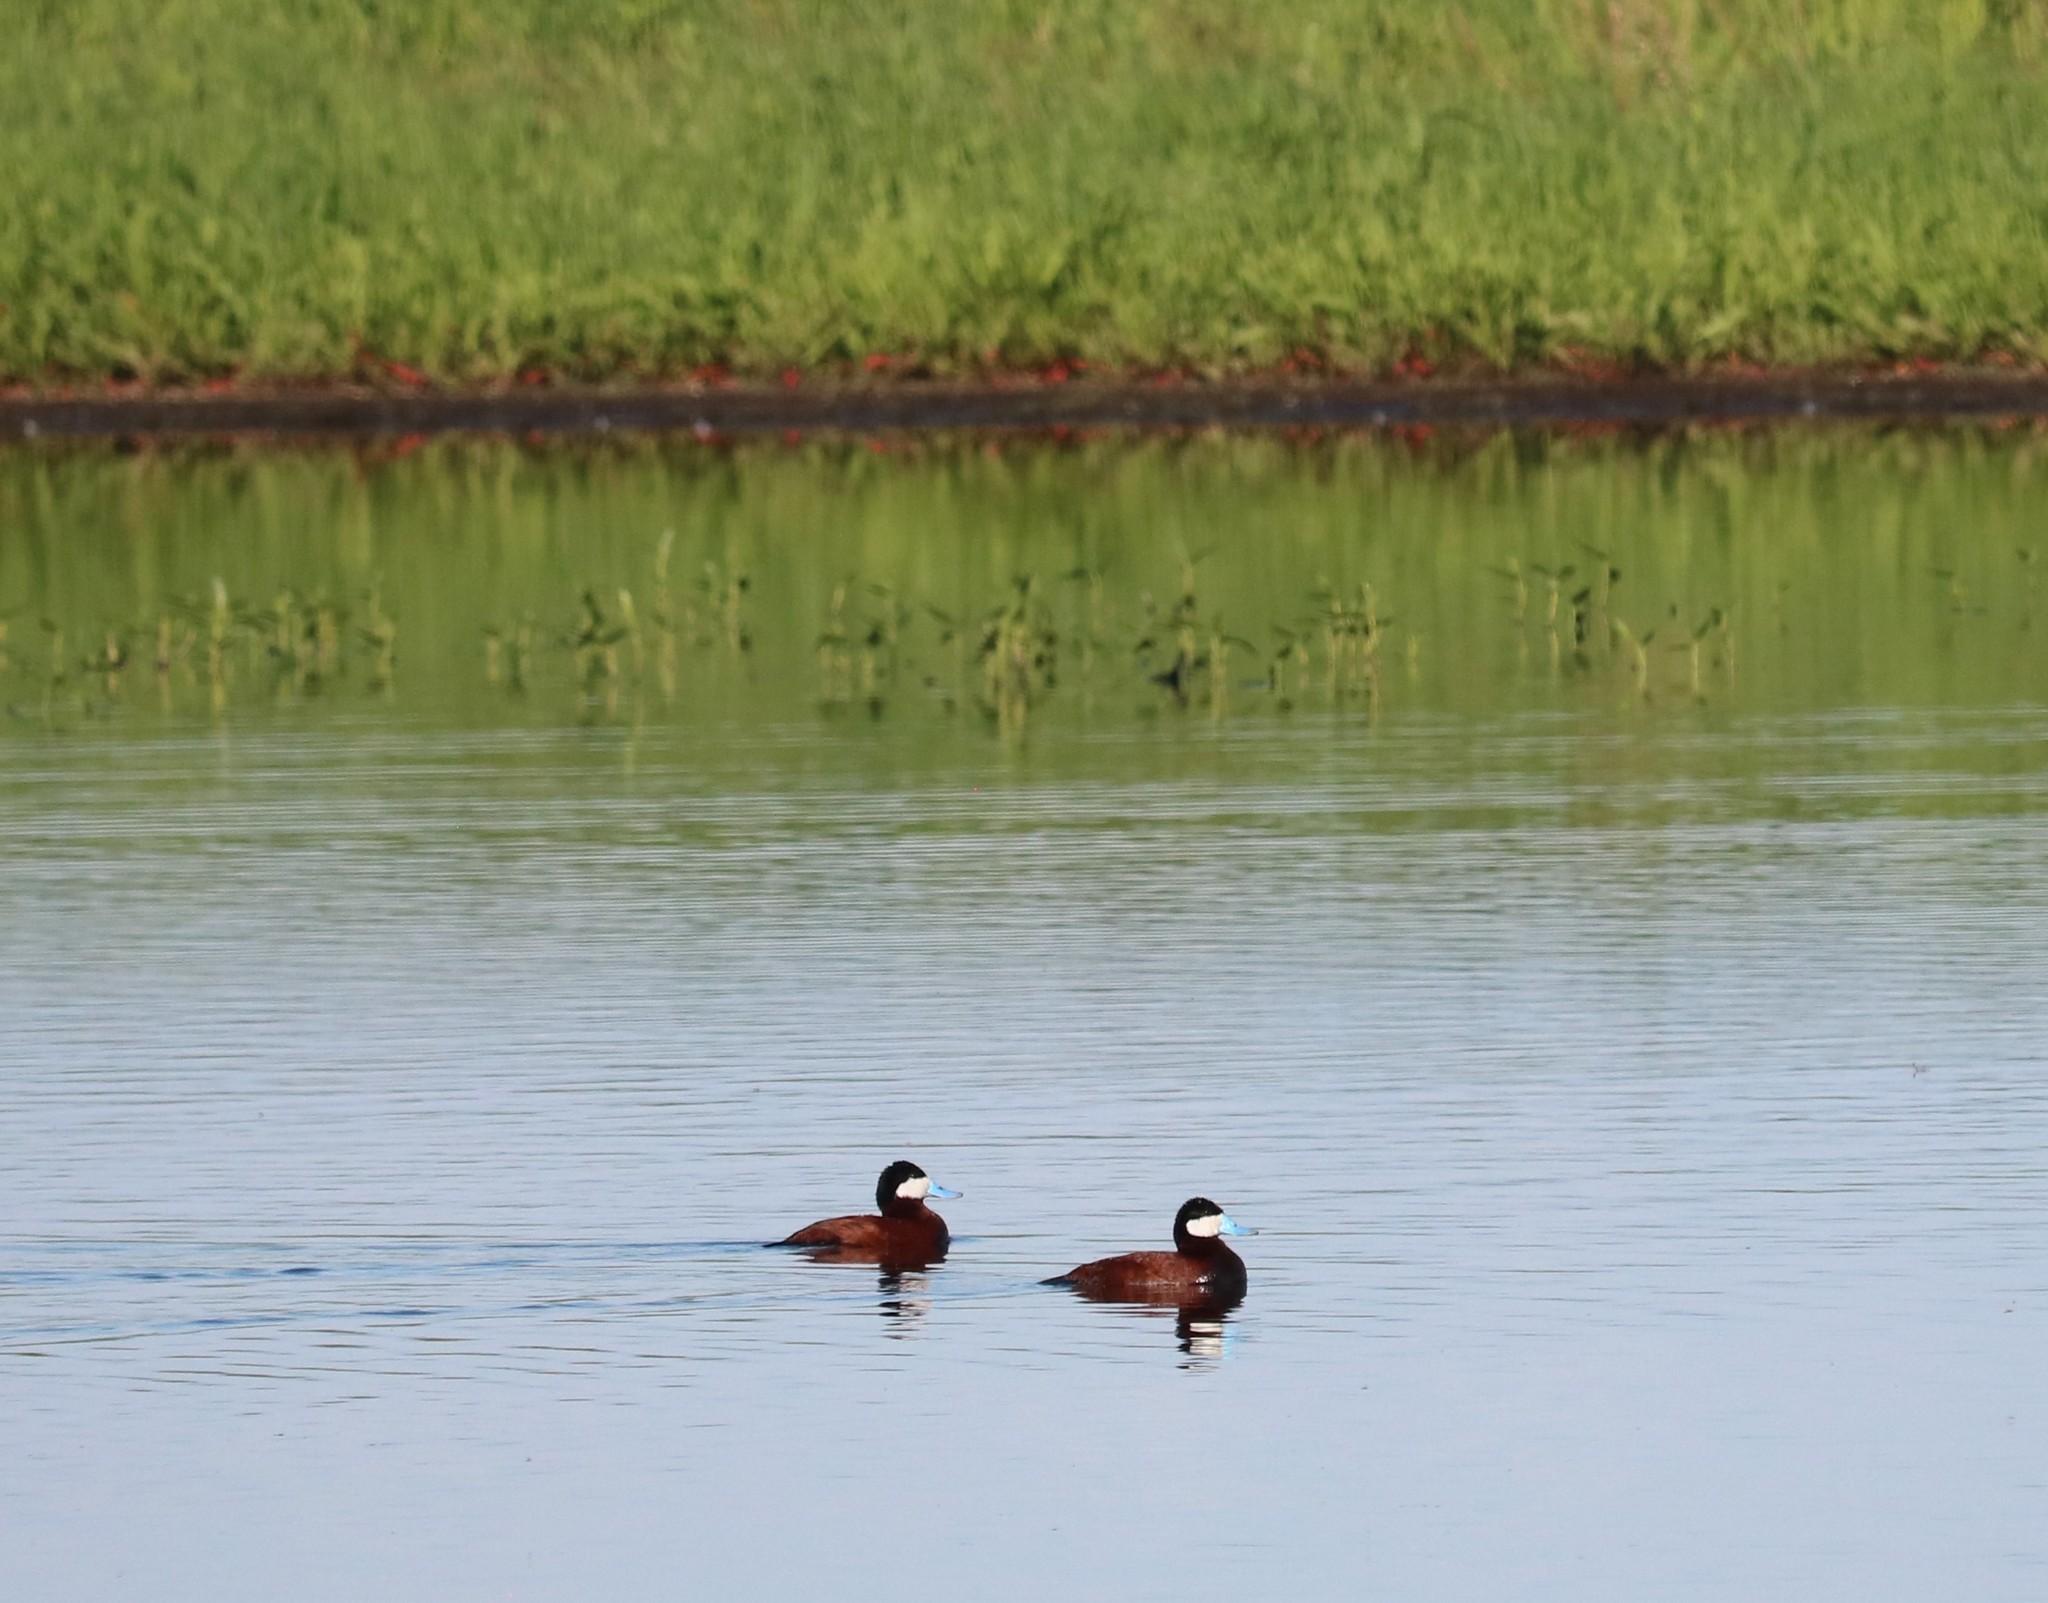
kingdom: Animalia
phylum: Chordata
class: Aves
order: Anseriformes
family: Anatidae
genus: Oxyura
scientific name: Oxyura jamaicensis
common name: Ruddy duck
